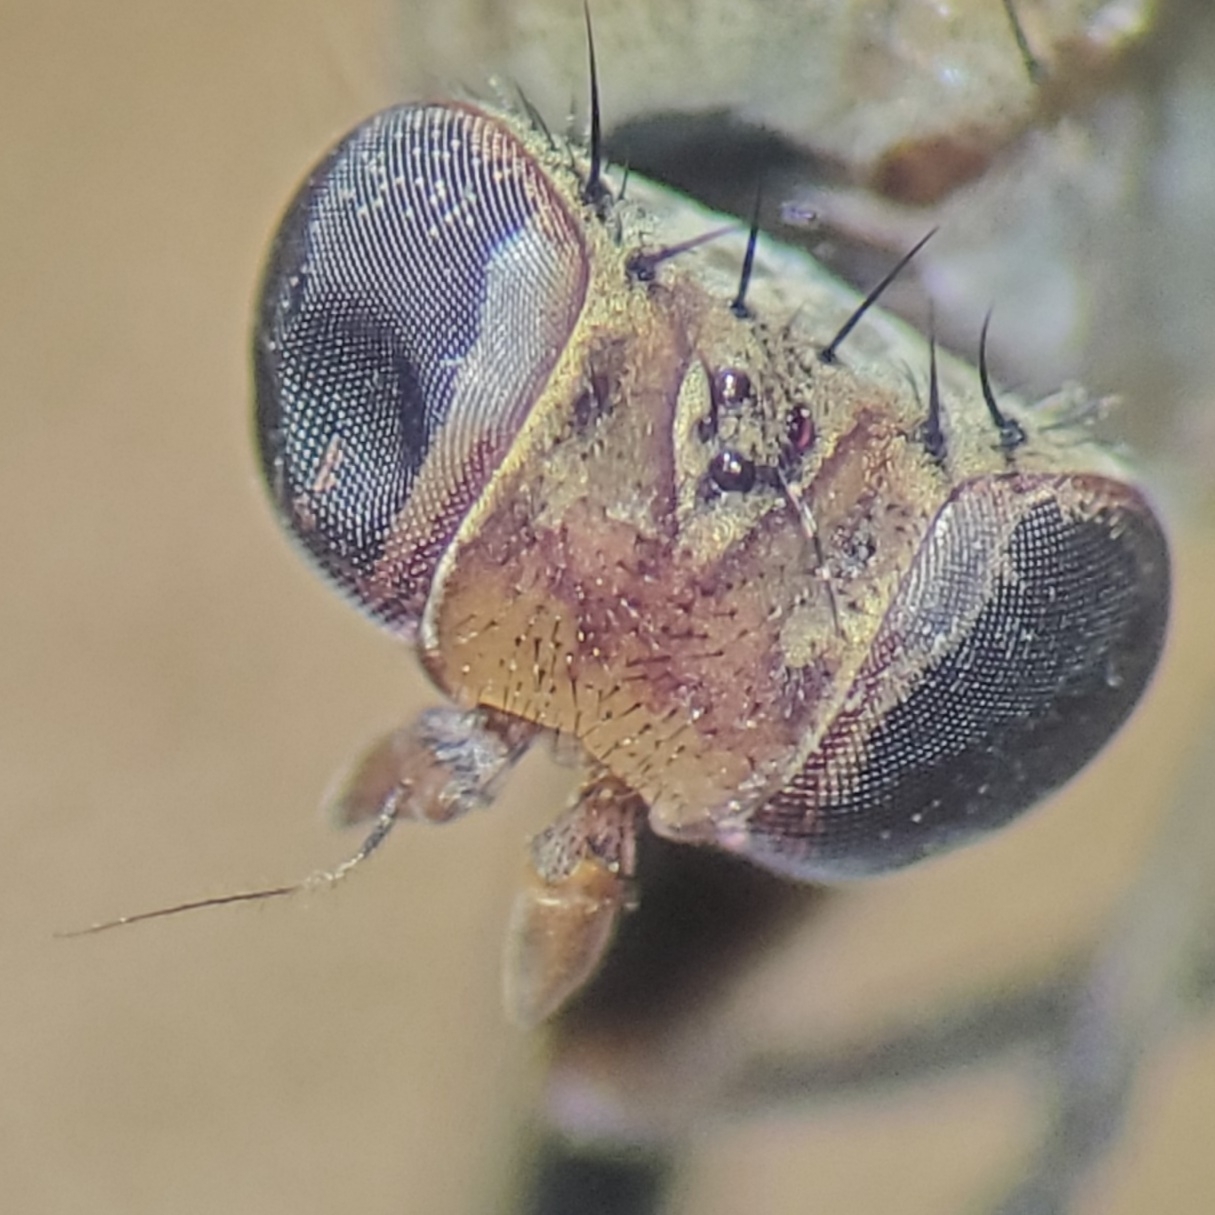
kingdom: Animalia
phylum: Arthropoda
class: Insecta
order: Diptera
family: Sciomyzidae
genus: Atrichomelina
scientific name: Atrichomelina pubera
